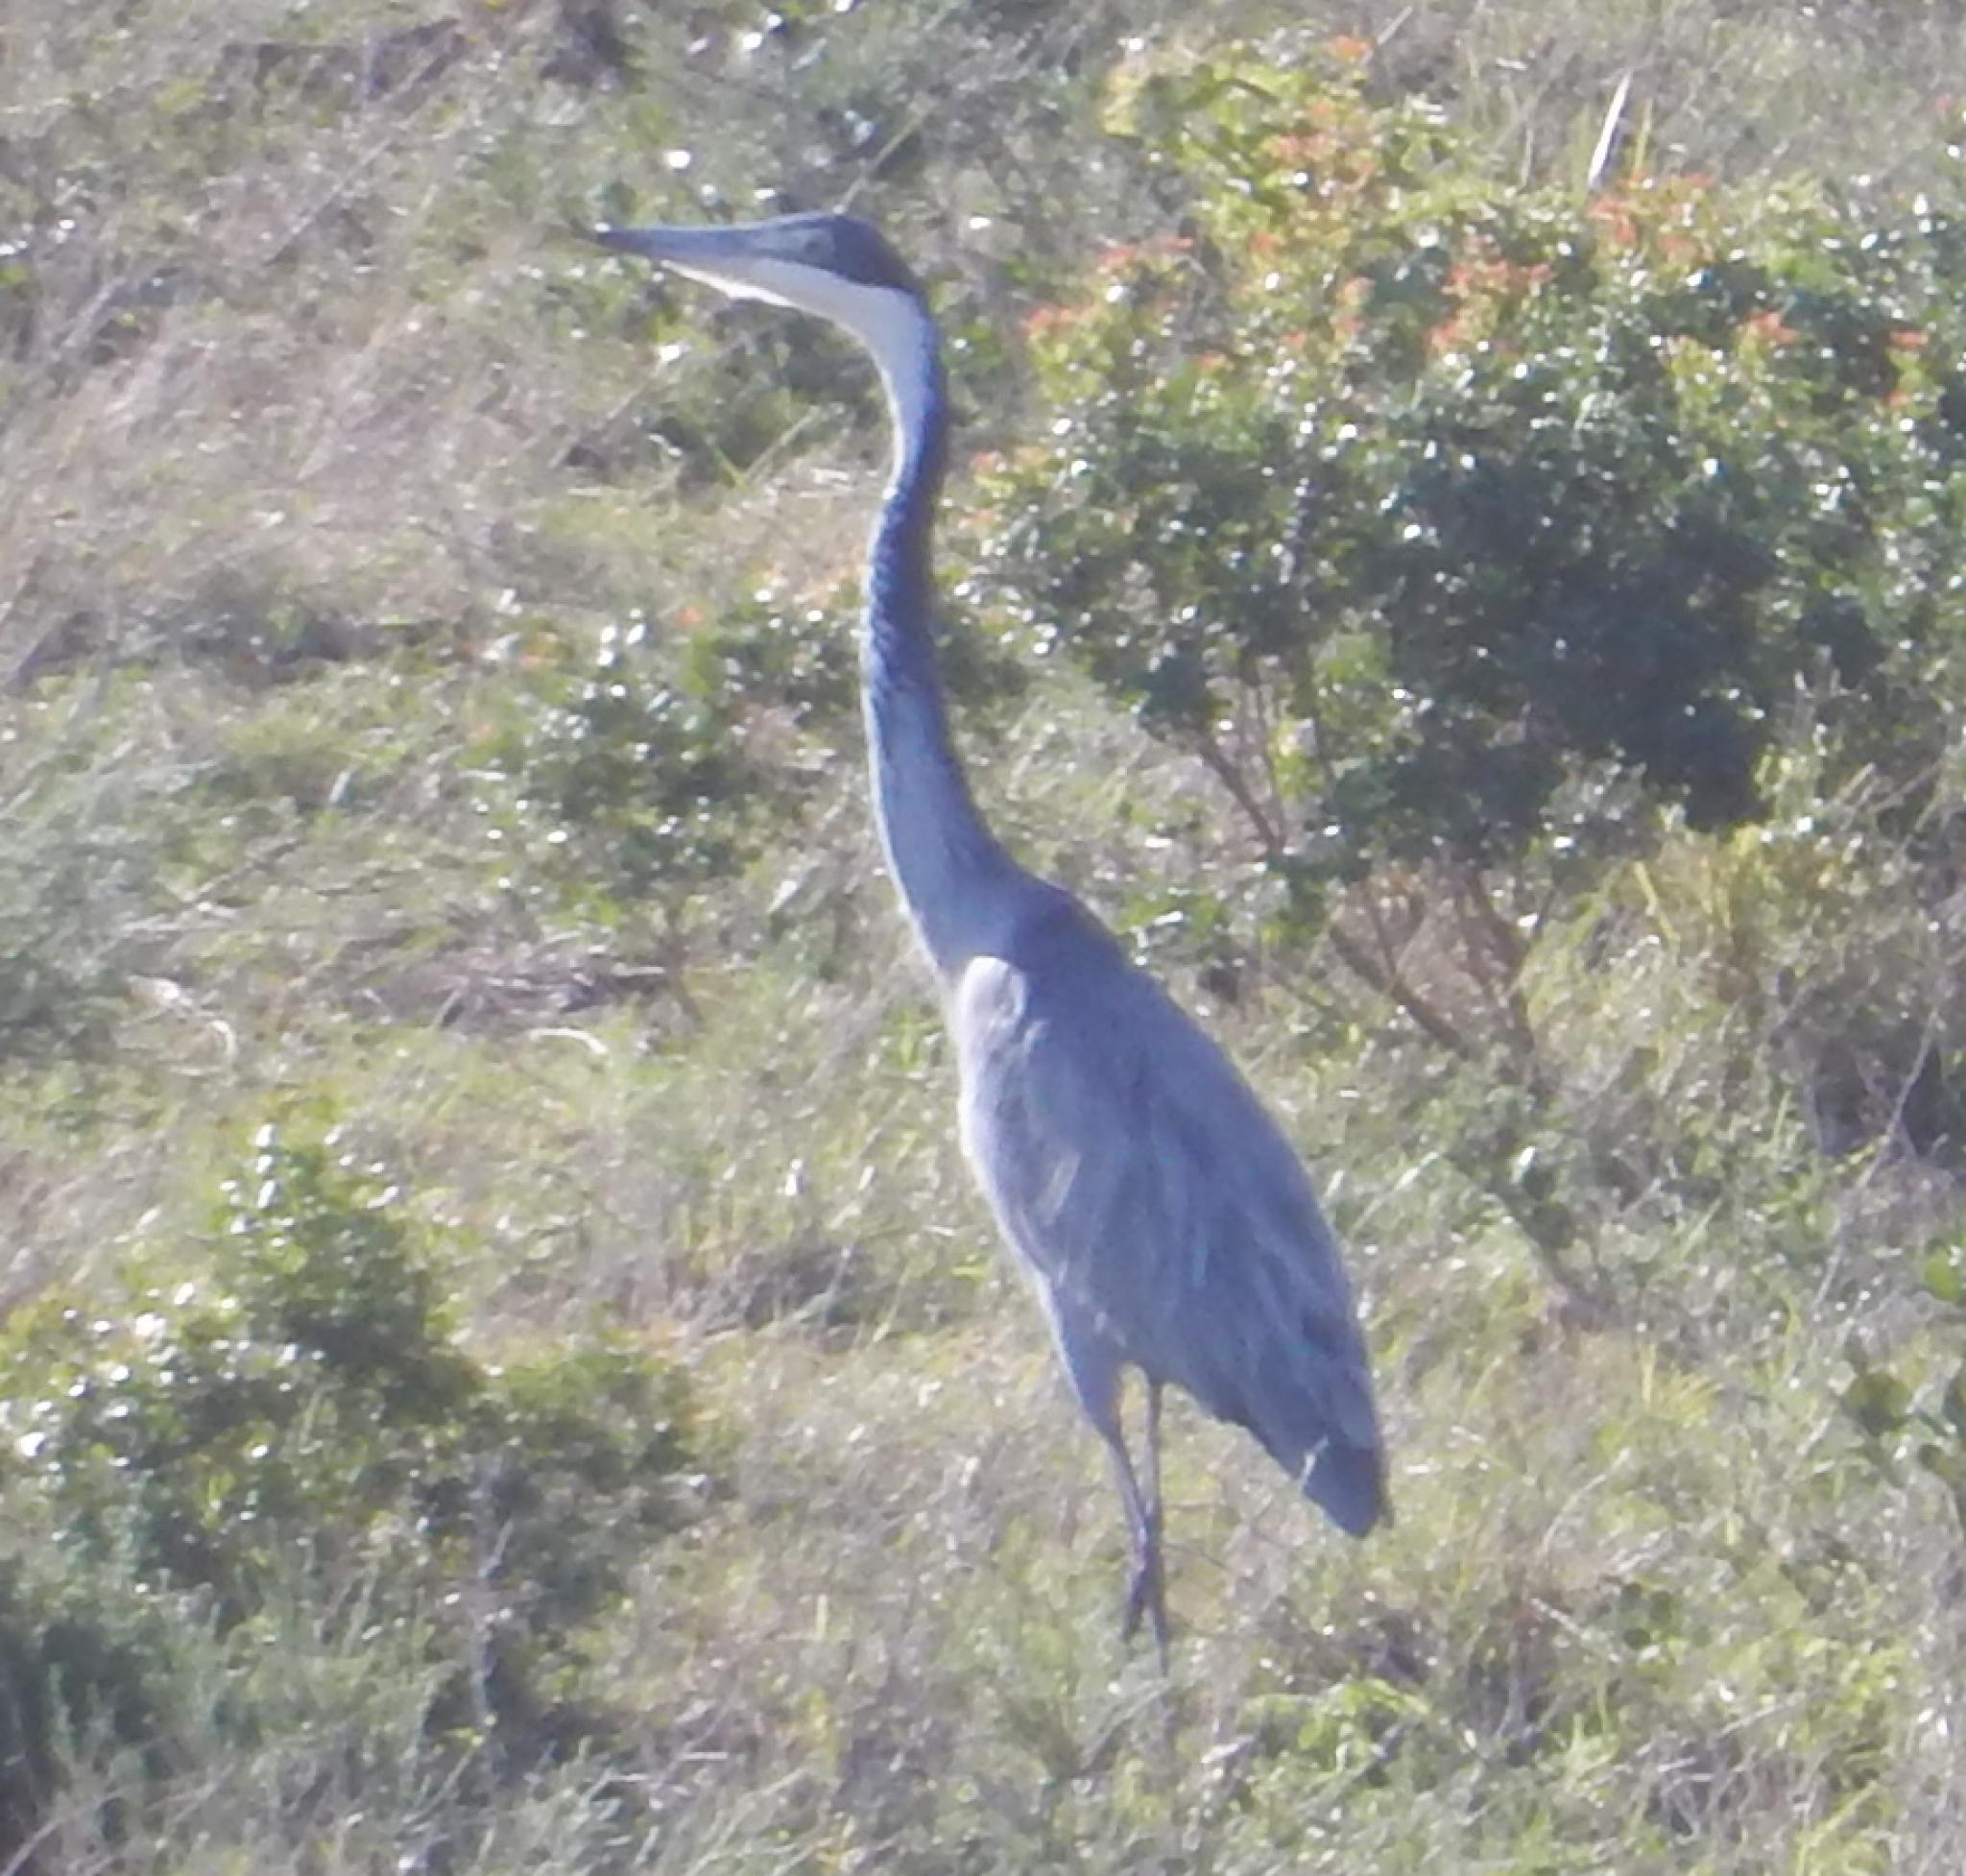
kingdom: Animalia
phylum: Chordata
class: Aves
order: Pelecaniformes
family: Ardeidae
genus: Ardea
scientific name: Ardea melanocephala
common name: Black-headed heron
